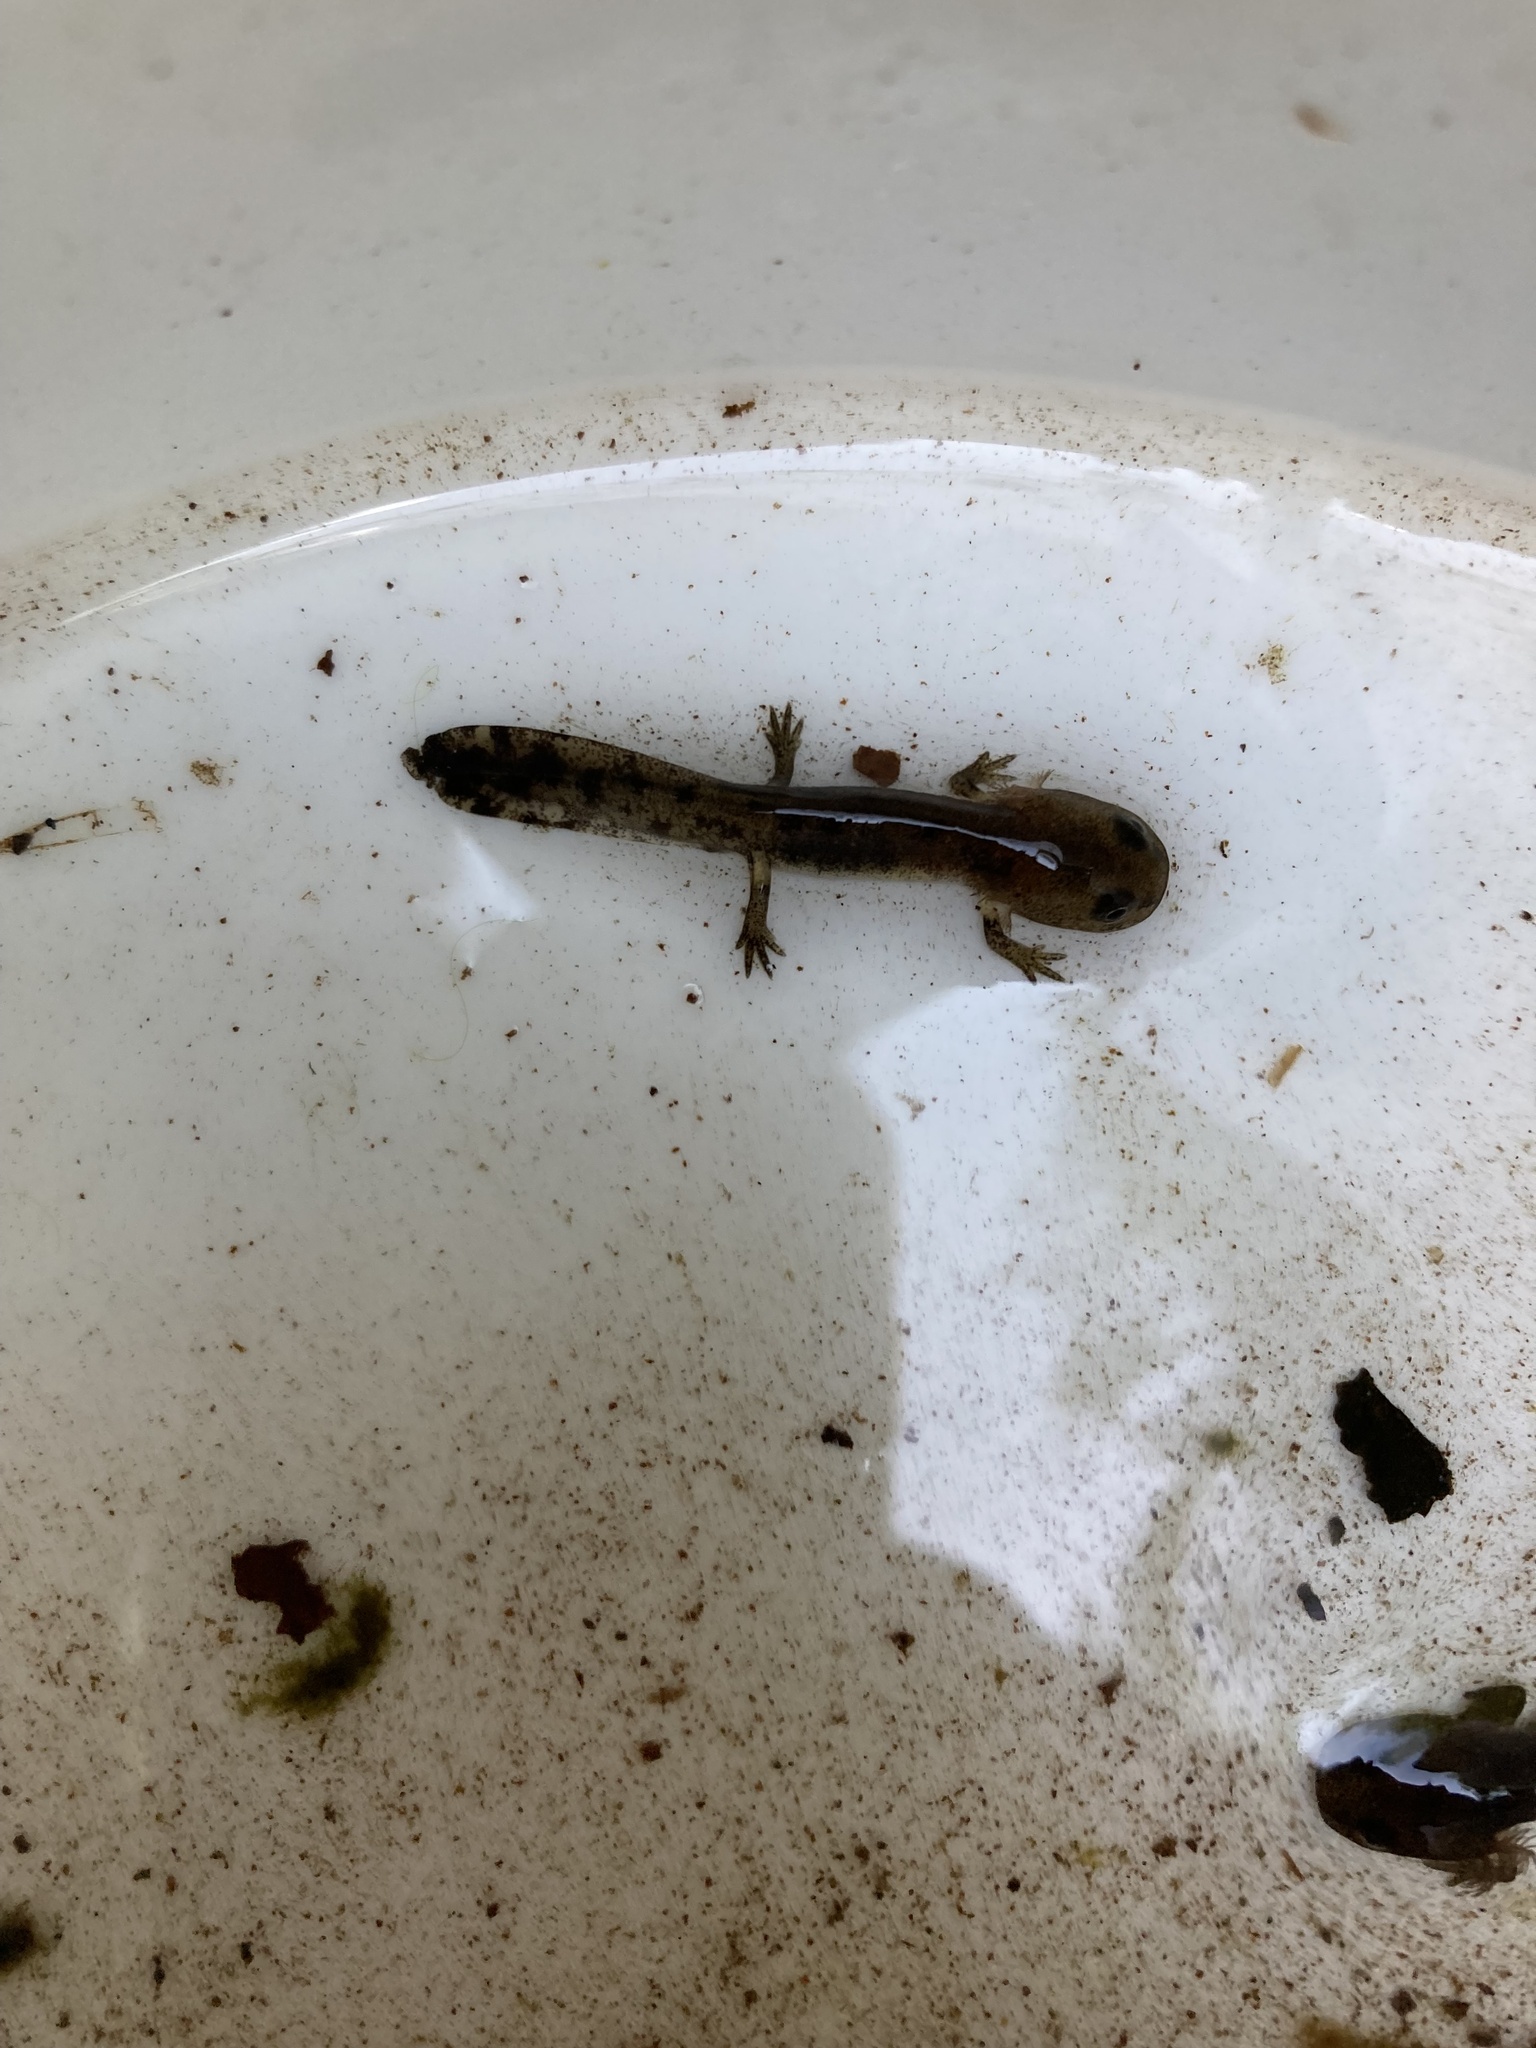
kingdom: Animalia
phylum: Chordata
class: Amphibia
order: Caudata
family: Salamandridae
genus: Salamandra
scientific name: Salamandra salamandra
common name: Fire salamander
